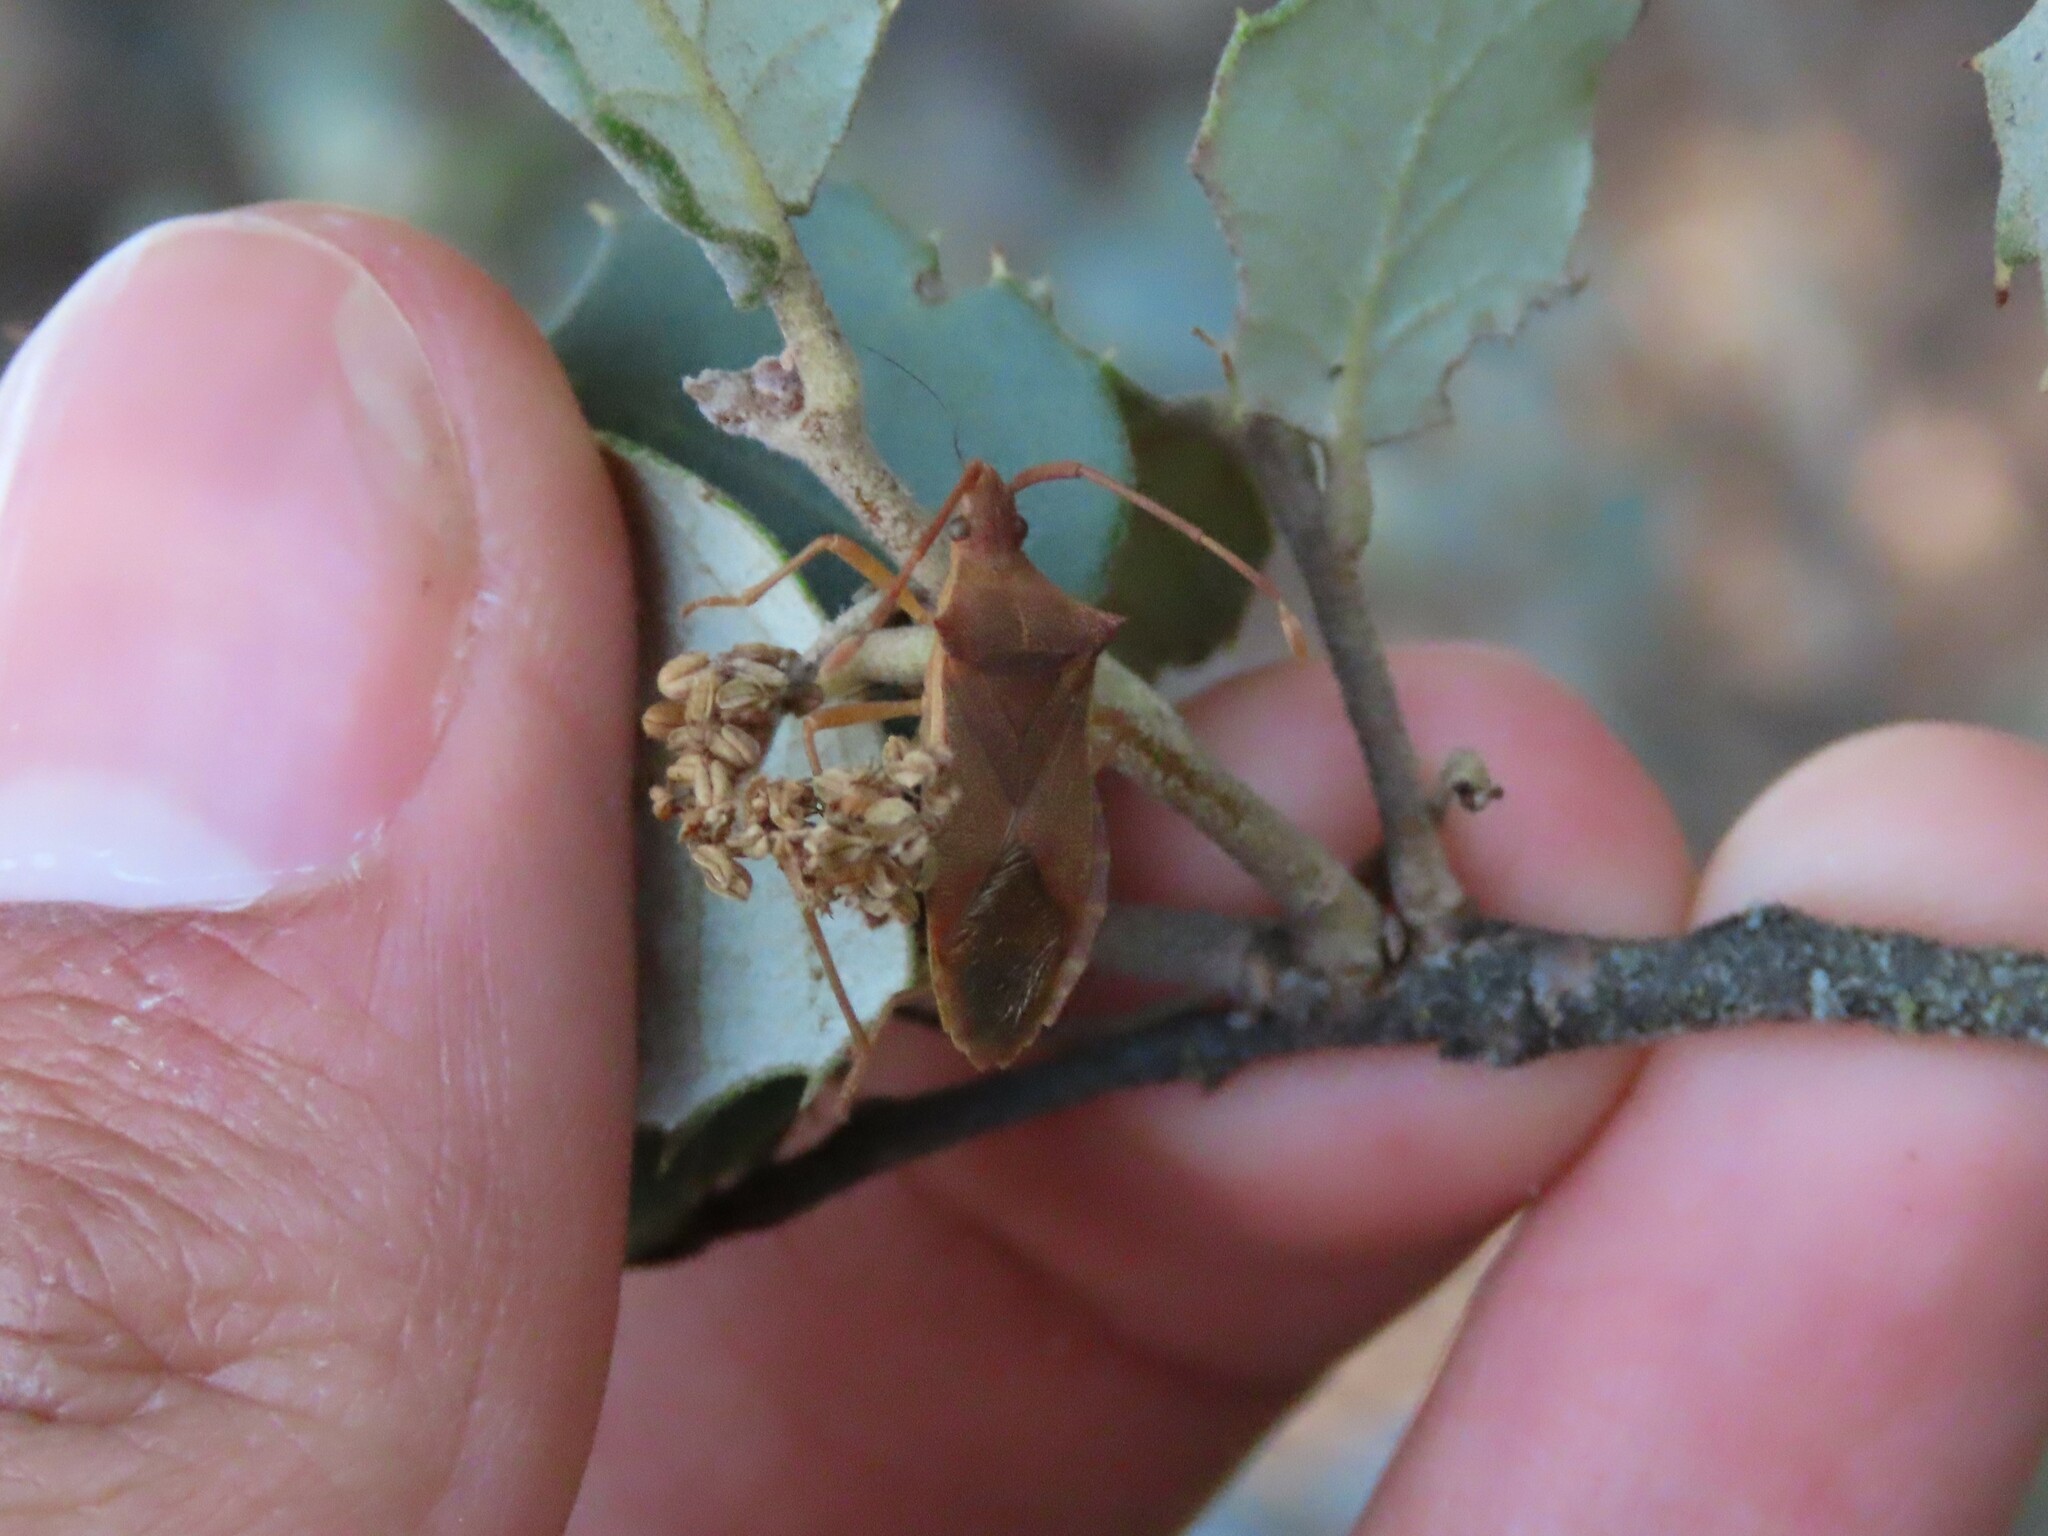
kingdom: Animalia
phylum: Arthropoda
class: Insecta
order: Hemiptera
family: Coreidae
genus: Gonocerus
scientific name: Gonocerus acuteangulatus
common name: Box bug
